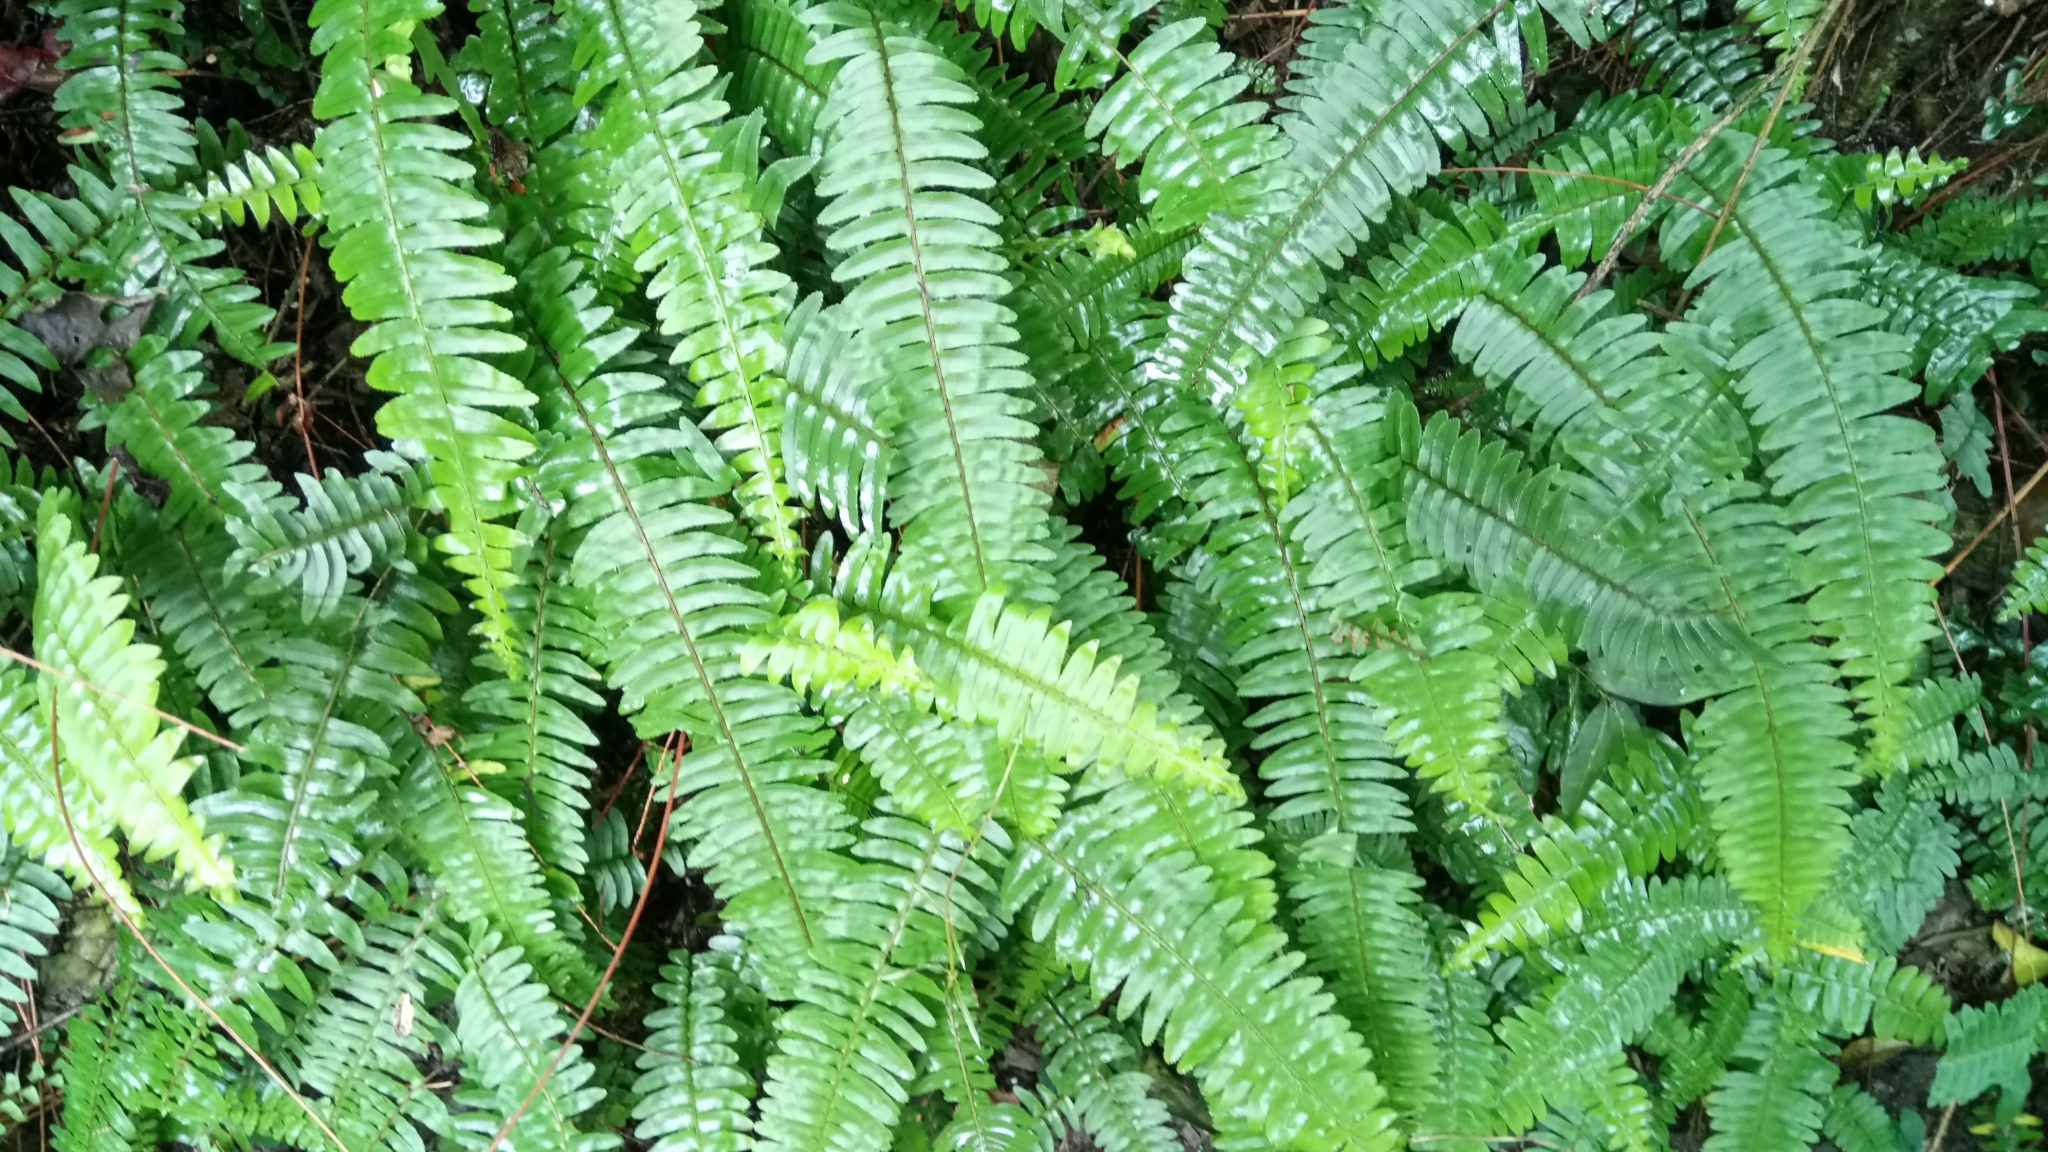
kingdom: Plantae
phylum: Tracheophyta
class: Polypodiopsida
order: Polypodiales
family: Nephrolepidaceae
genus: Nephrolepis
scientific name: Nephrolepis cordifolia
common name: Narrow swordfern
